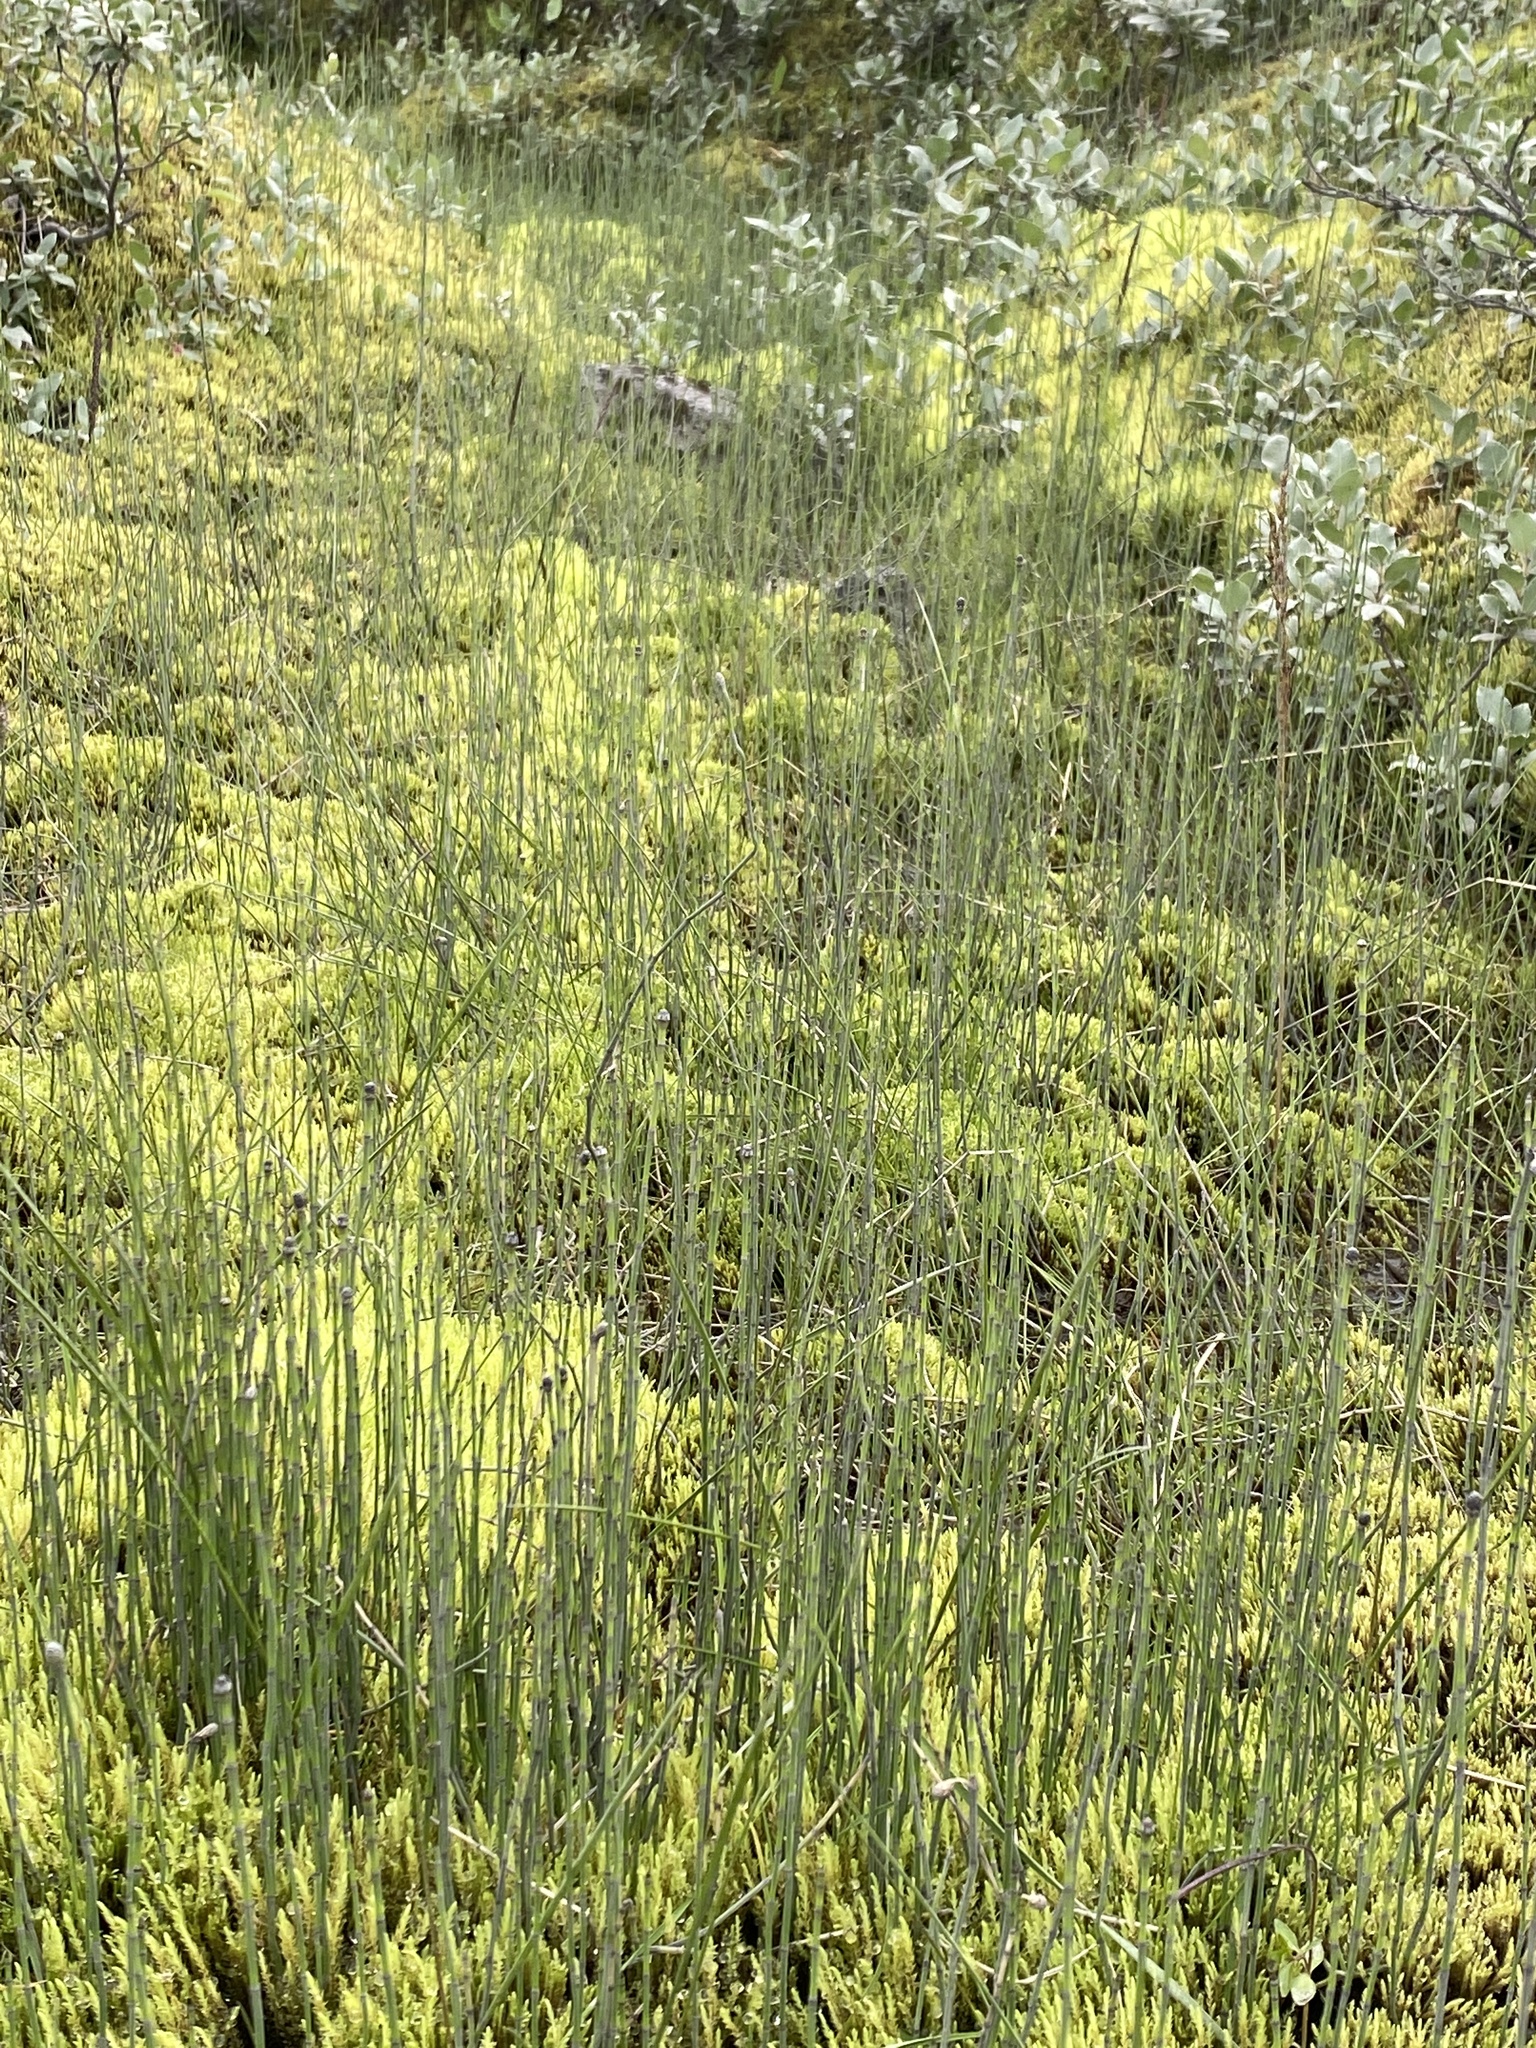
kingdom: Plantae
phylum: Tracheophyta
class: Polypodiopsida
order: Equisetales
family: Equisetaceae
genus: Equisetum
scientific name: Equisetum variegatum
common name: Variegated horsetail
